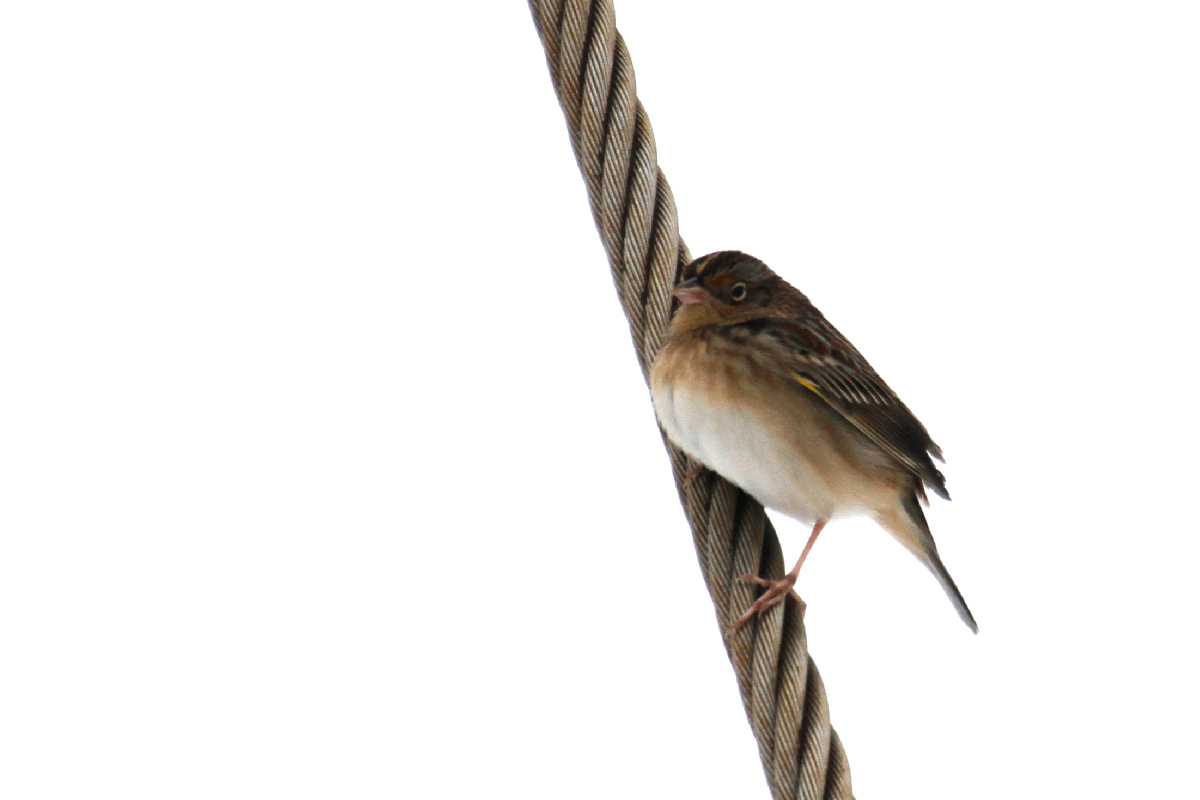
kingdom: Animalia
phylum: Chordata
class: Aves
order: Passeriformes
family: Passerellidae
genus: Ammodramus
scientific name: Ammodramus savannarum
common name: Grasshopper sparrow
